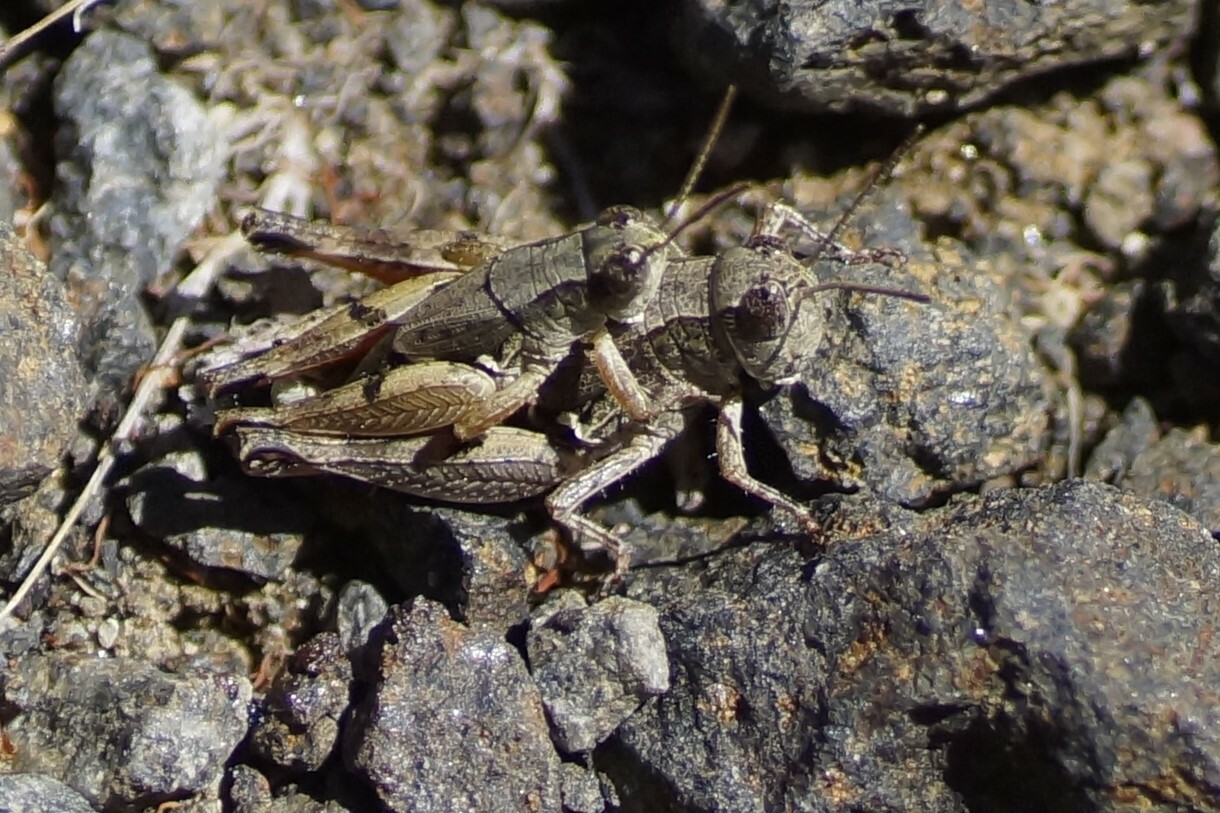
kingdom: Animalia
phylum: Arthropoda
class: Insecta
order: Orthoptera
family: Acrididae
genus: Phaulacridium
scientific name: Phaulacridium vittatum
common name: Wingless grasshopper
